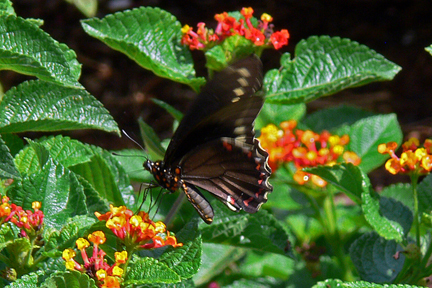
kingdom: Animalia
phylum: Arthropoda
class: Insecta
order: Lepidoptera
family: Papilionidae
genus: Battus
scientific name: Battus polydamas
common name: Polydamas swallowtail
